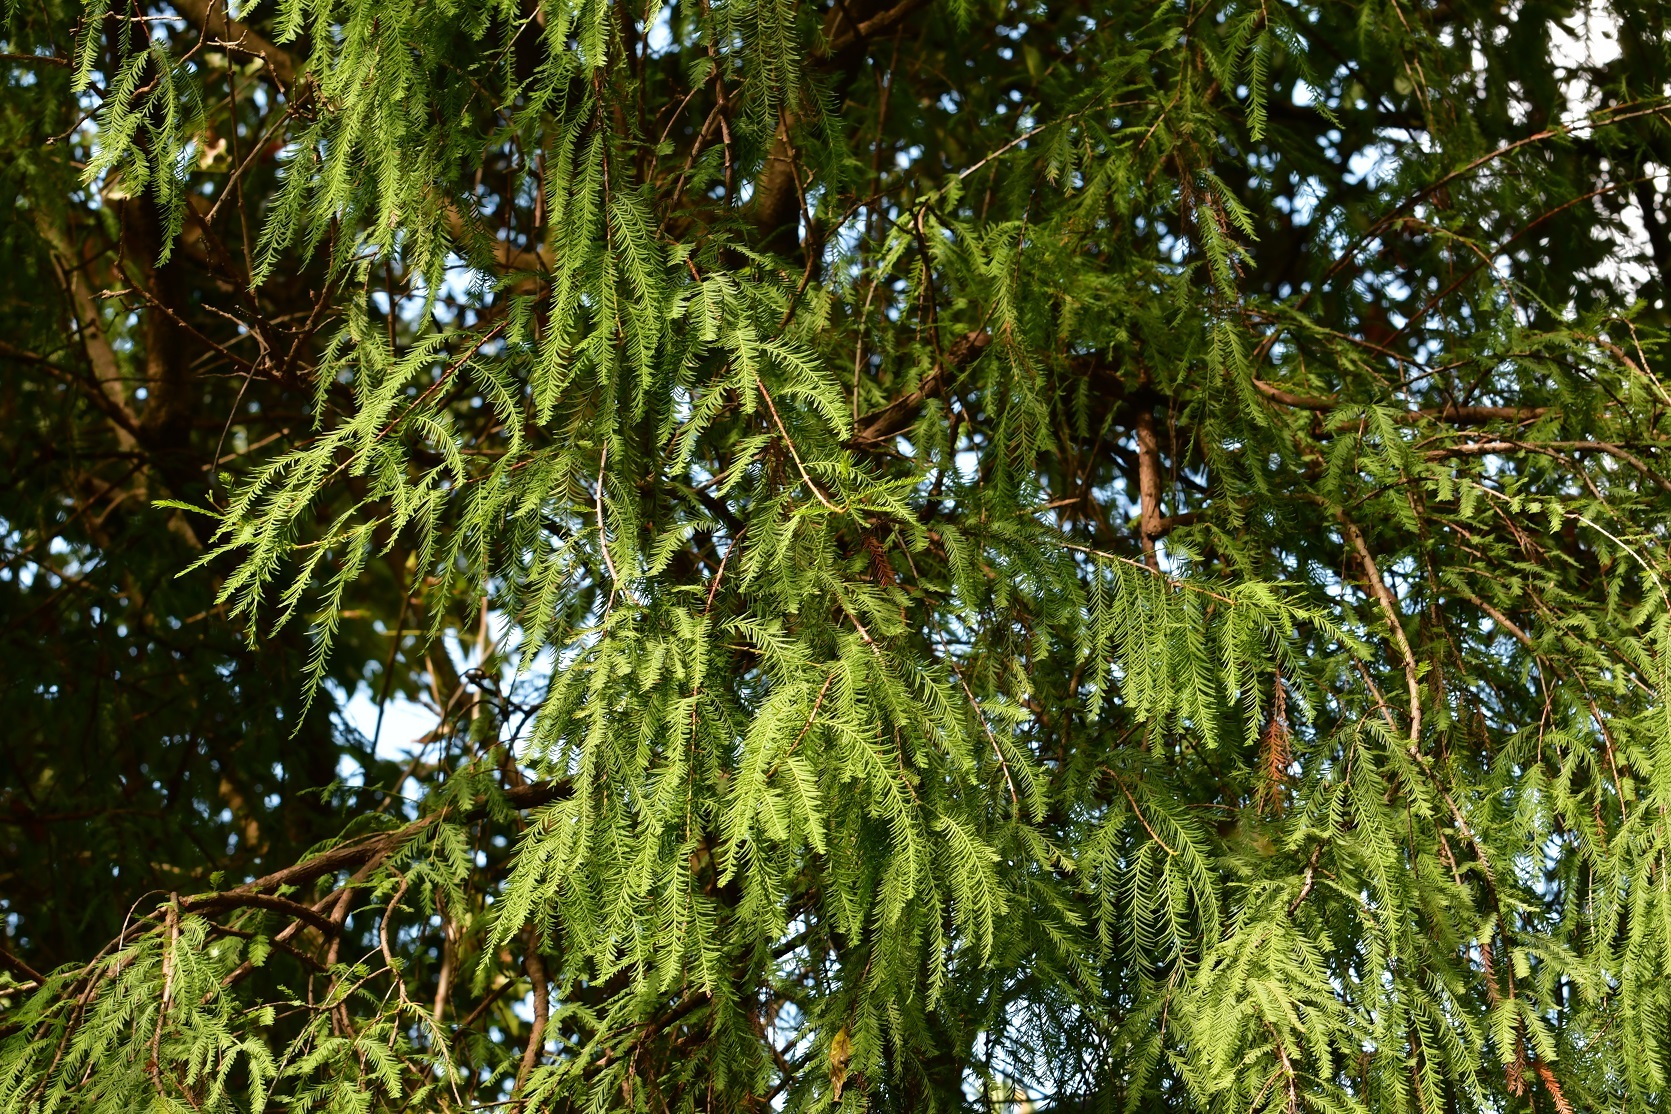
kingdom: Plantae
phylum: Tracheophyta
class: Pinopsida
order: Pinales
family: Cupressaceae
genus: Taxodium
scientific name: Taxodium mucronatum
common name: Montezume bald cypress
